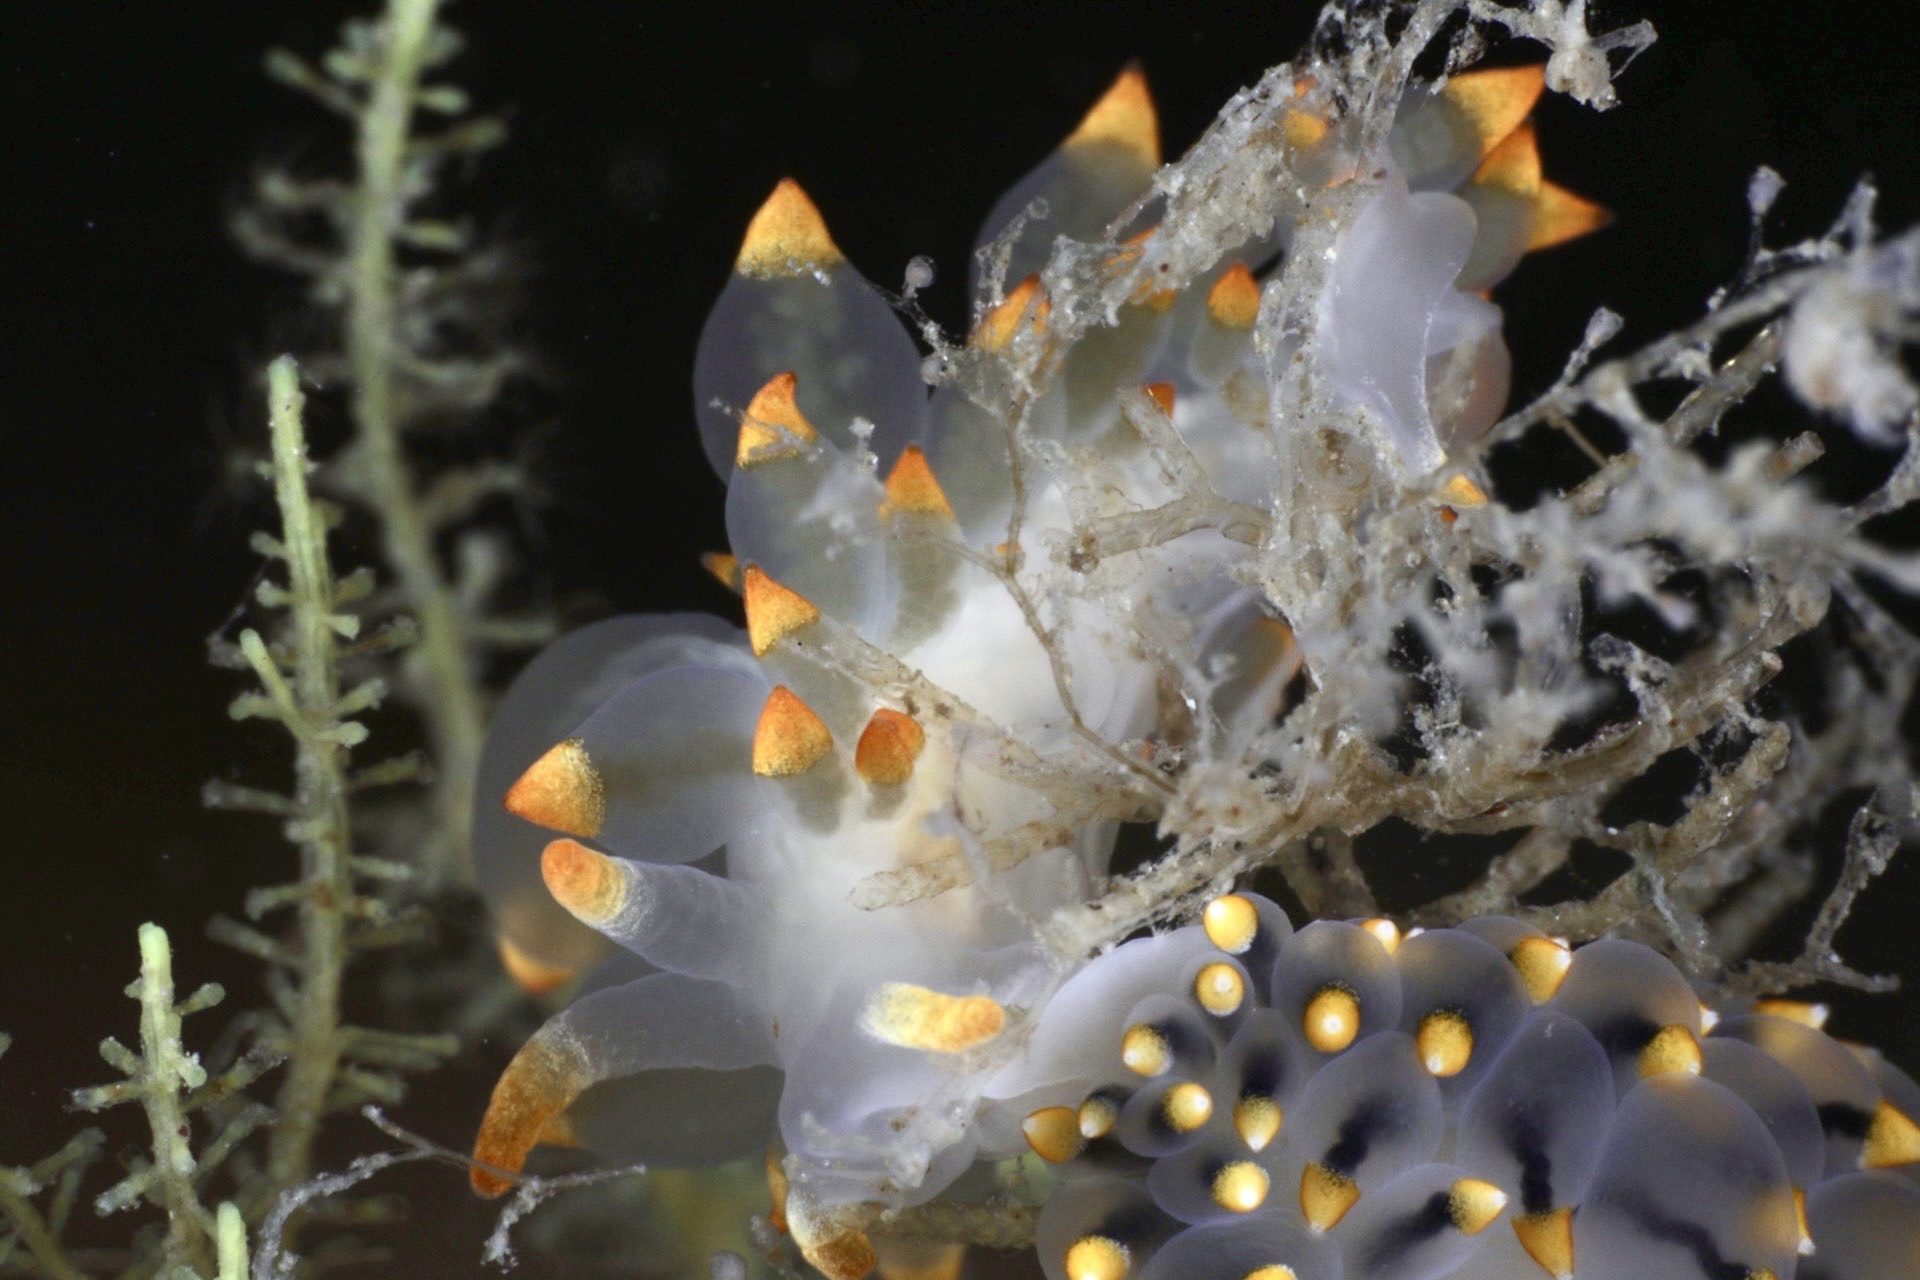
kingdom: Animalia
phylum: Mollusca
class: Gastropoda
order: Nudibranchia
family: Eubranchidae
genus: Amphorina
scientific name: Amphorina farrani
